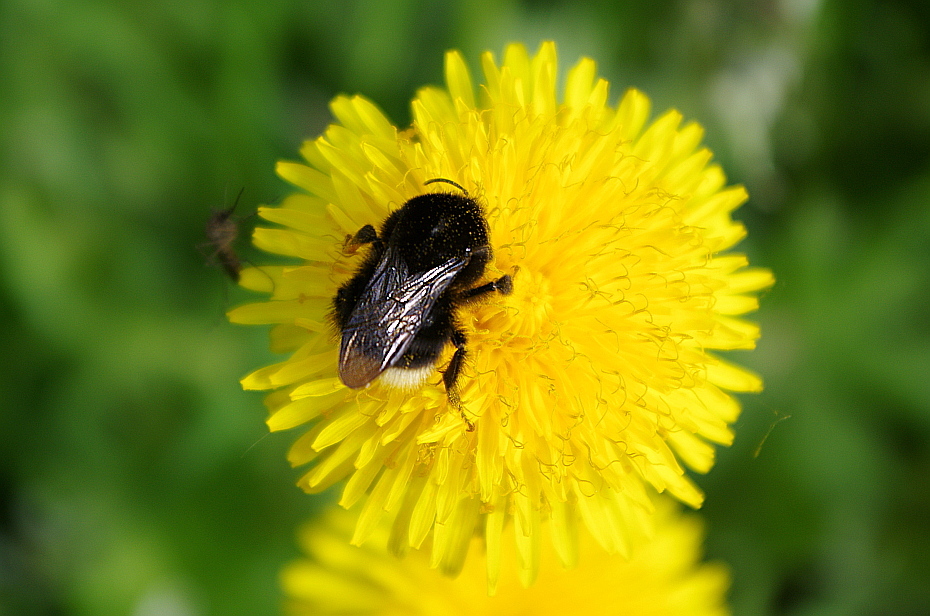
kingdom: Animalia
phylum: Arthropoda
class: Insecta
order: Hymenoptera
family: Apidae
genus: Bombus
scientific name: Bombus soroeensis
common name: Broken-belted humble-bee
